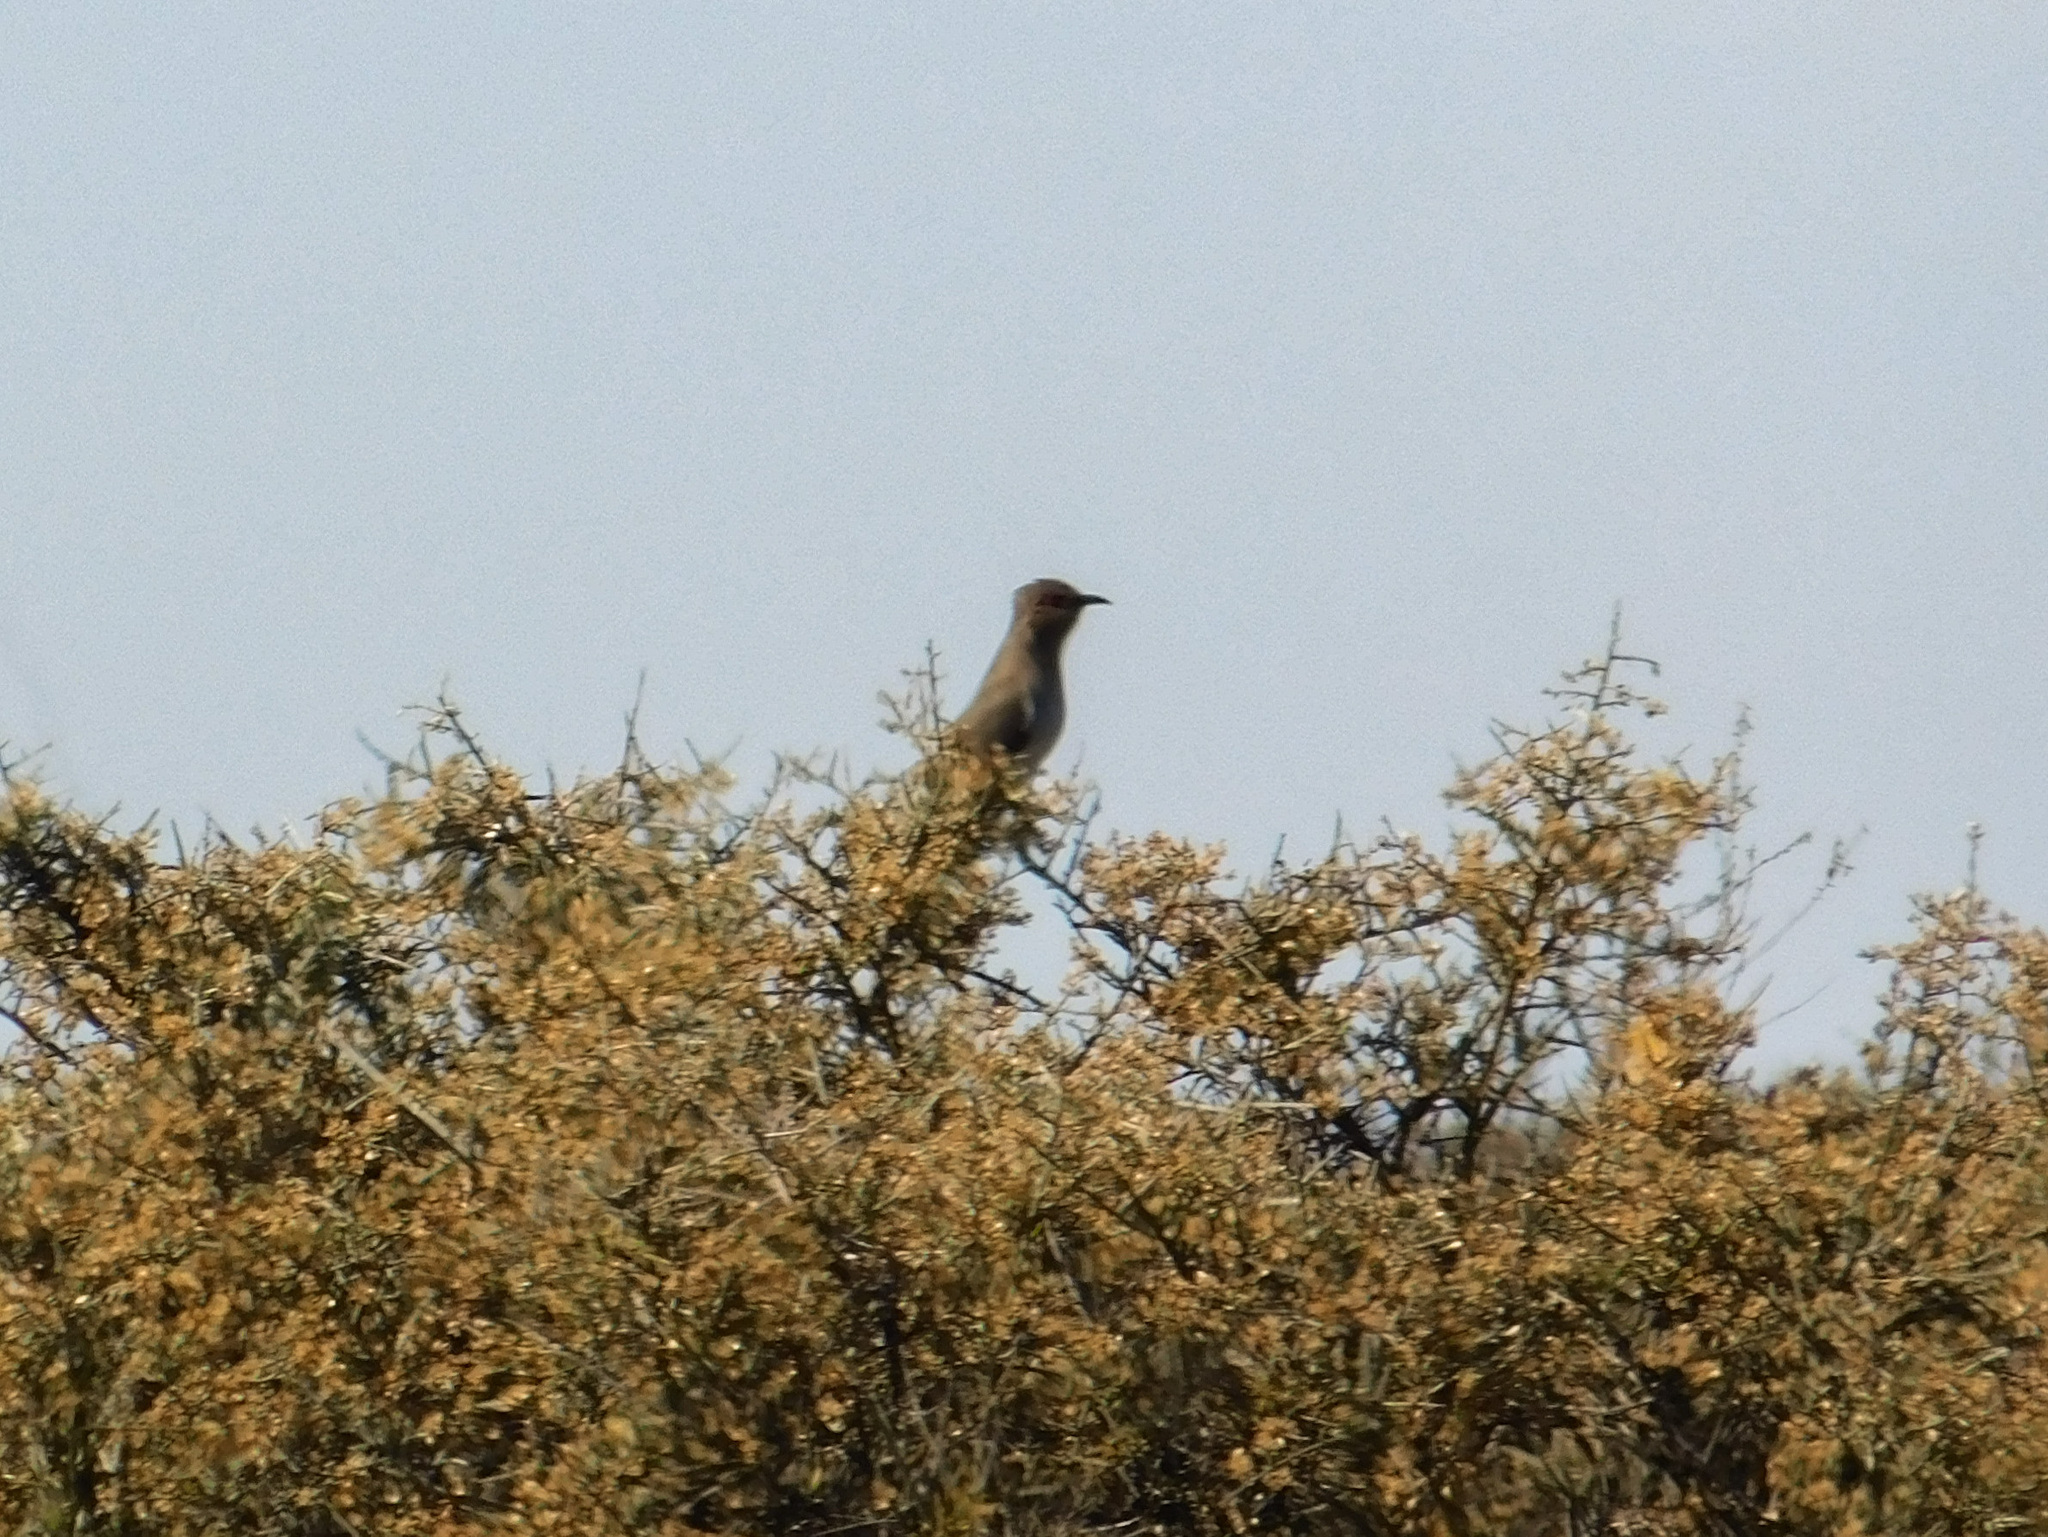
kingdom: Animalia
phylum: Chordata
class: Aves
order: Cuculiformes
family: Cuculidae
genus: Coccyzus
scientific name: Coccyzus cinereus
